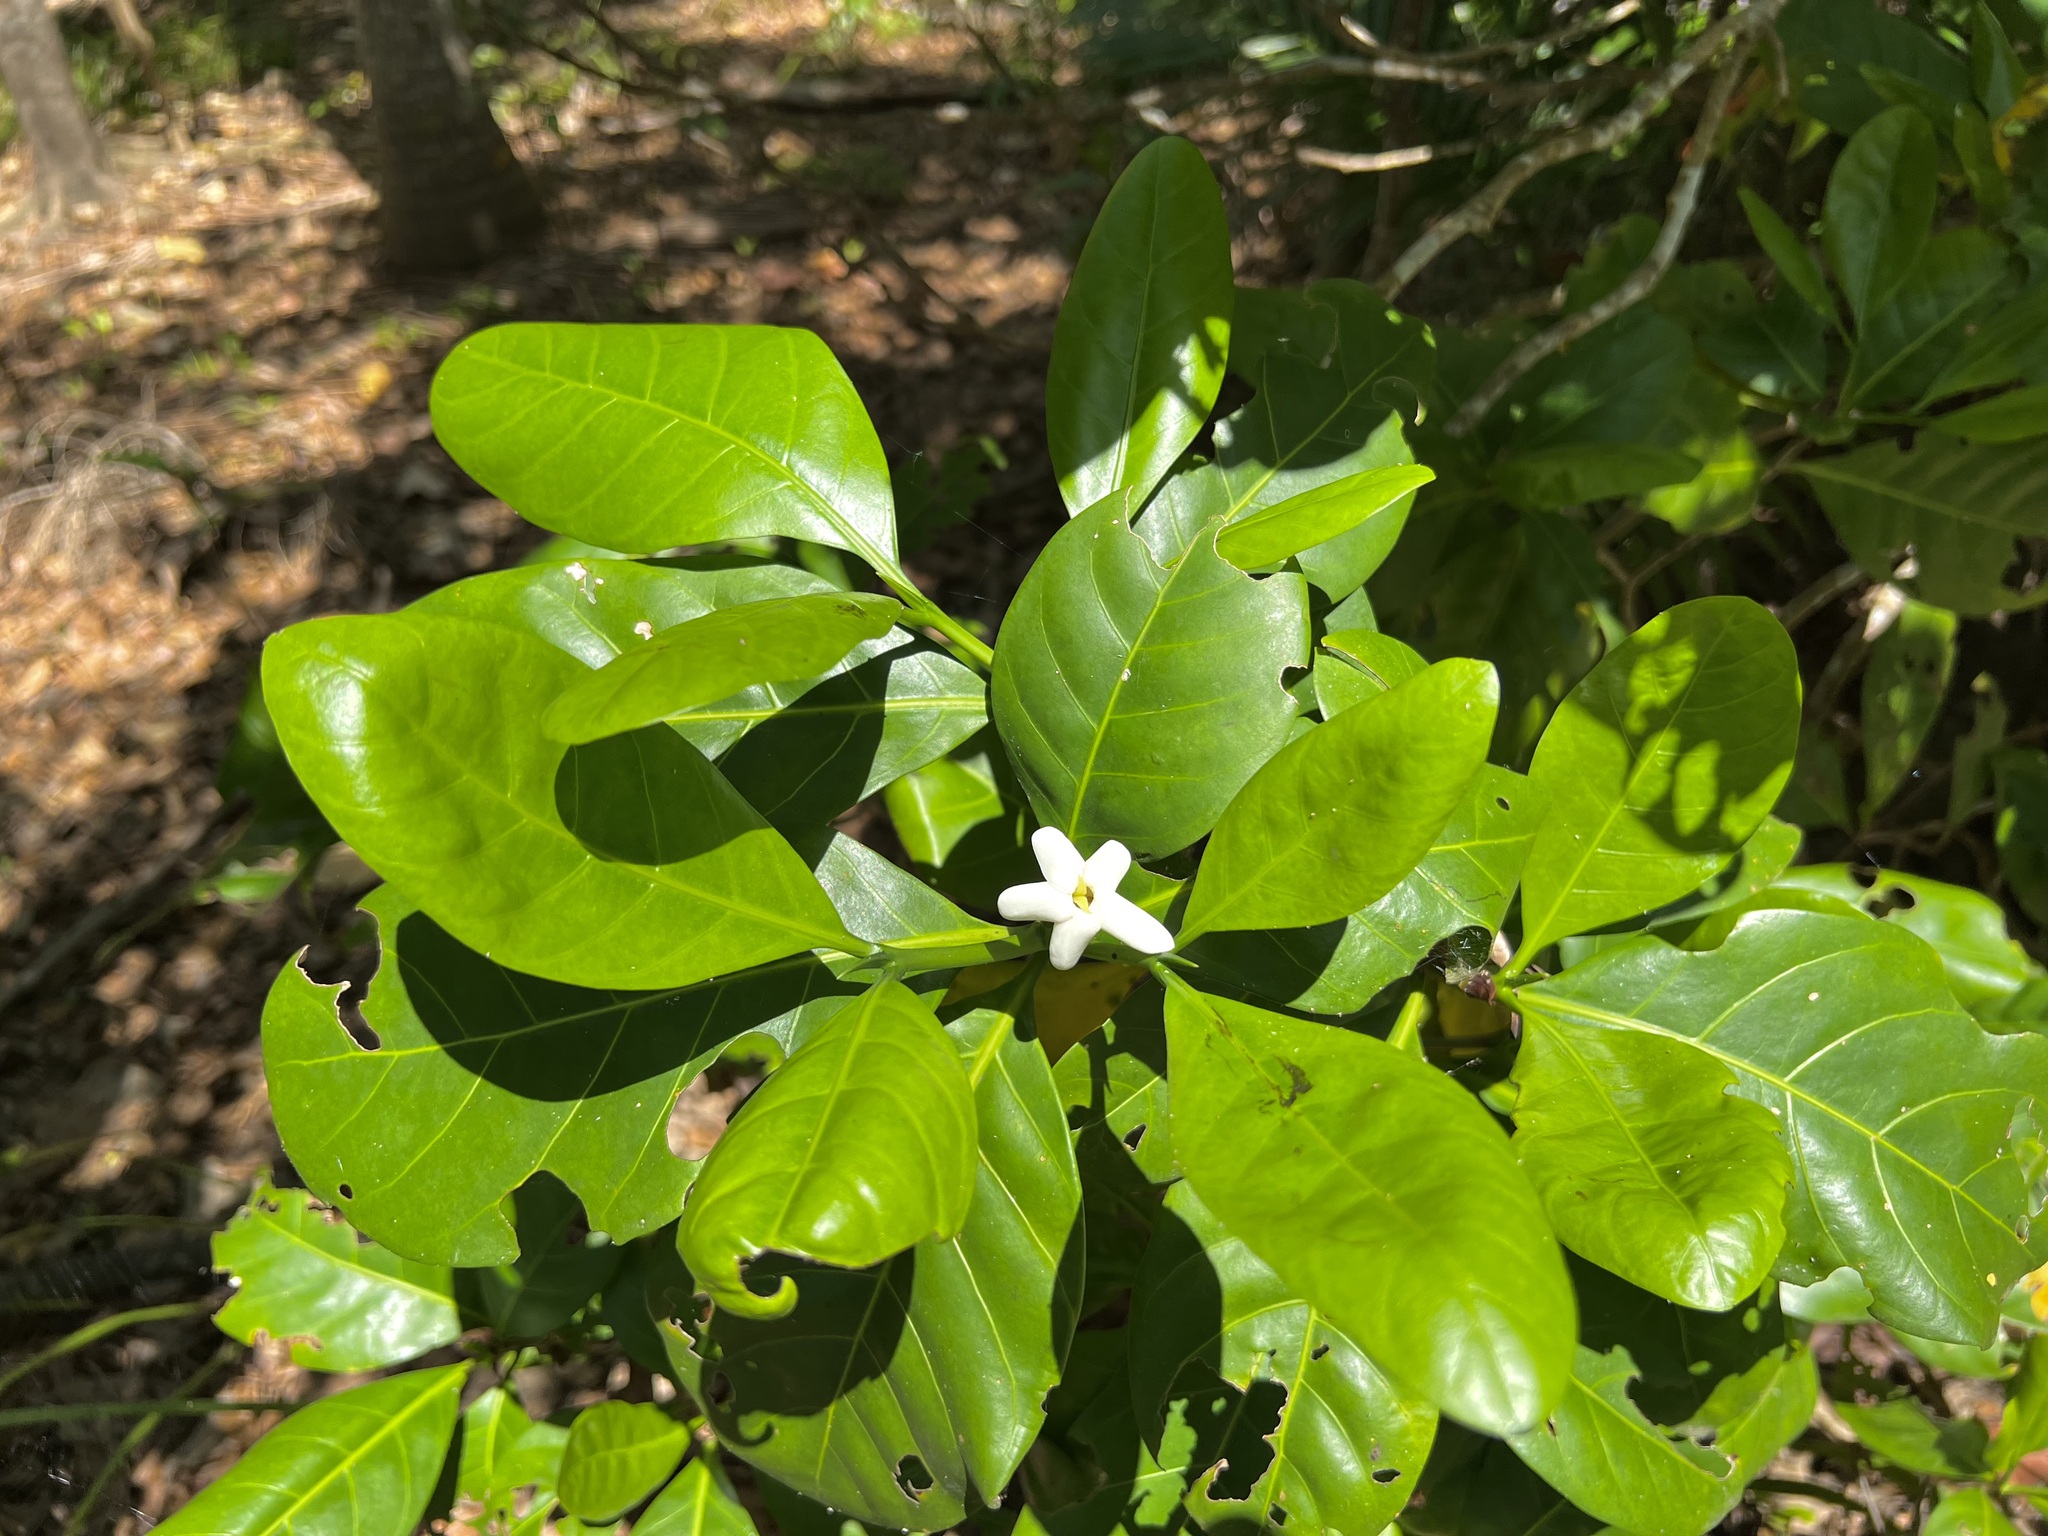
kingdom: Plantae
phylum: Tracheophyta
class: Magnoliopsida
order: Gentianales
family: Rubiaceae
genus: Atractocarpus
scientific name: Atractocarpus fitzalanii
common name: Randia
